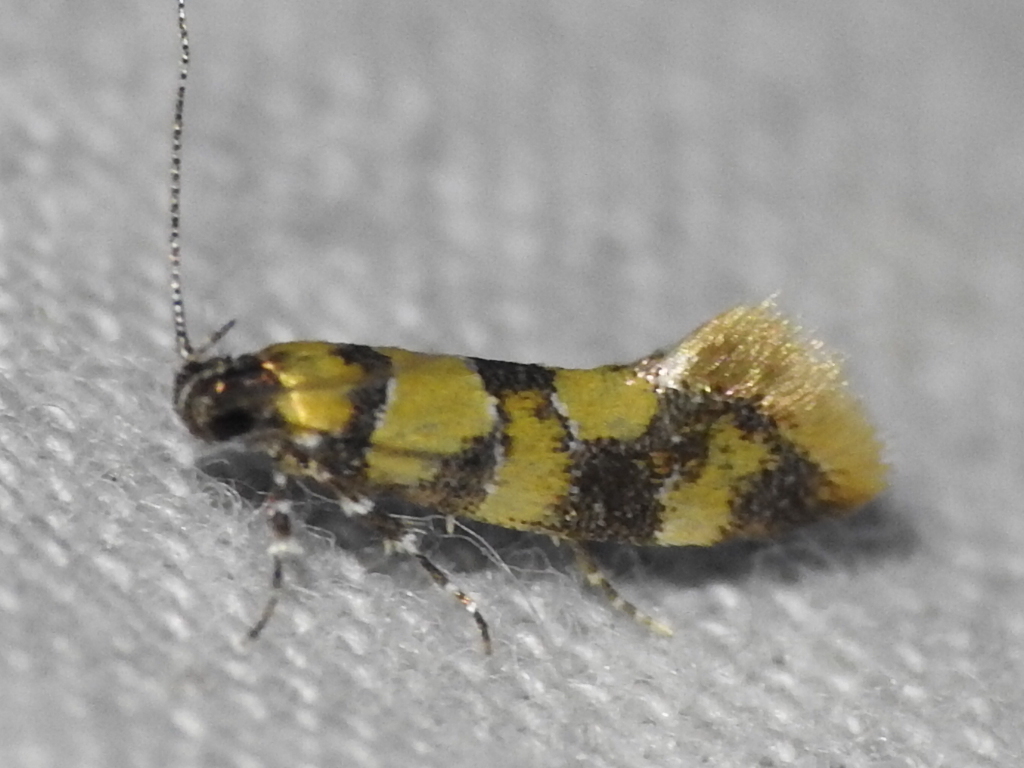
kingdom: Animalia
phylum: Arthropoda
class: Insecta
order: Lepidoptera
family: Oecophoridae
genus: Decantha
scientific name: Decantha borkhausenii
